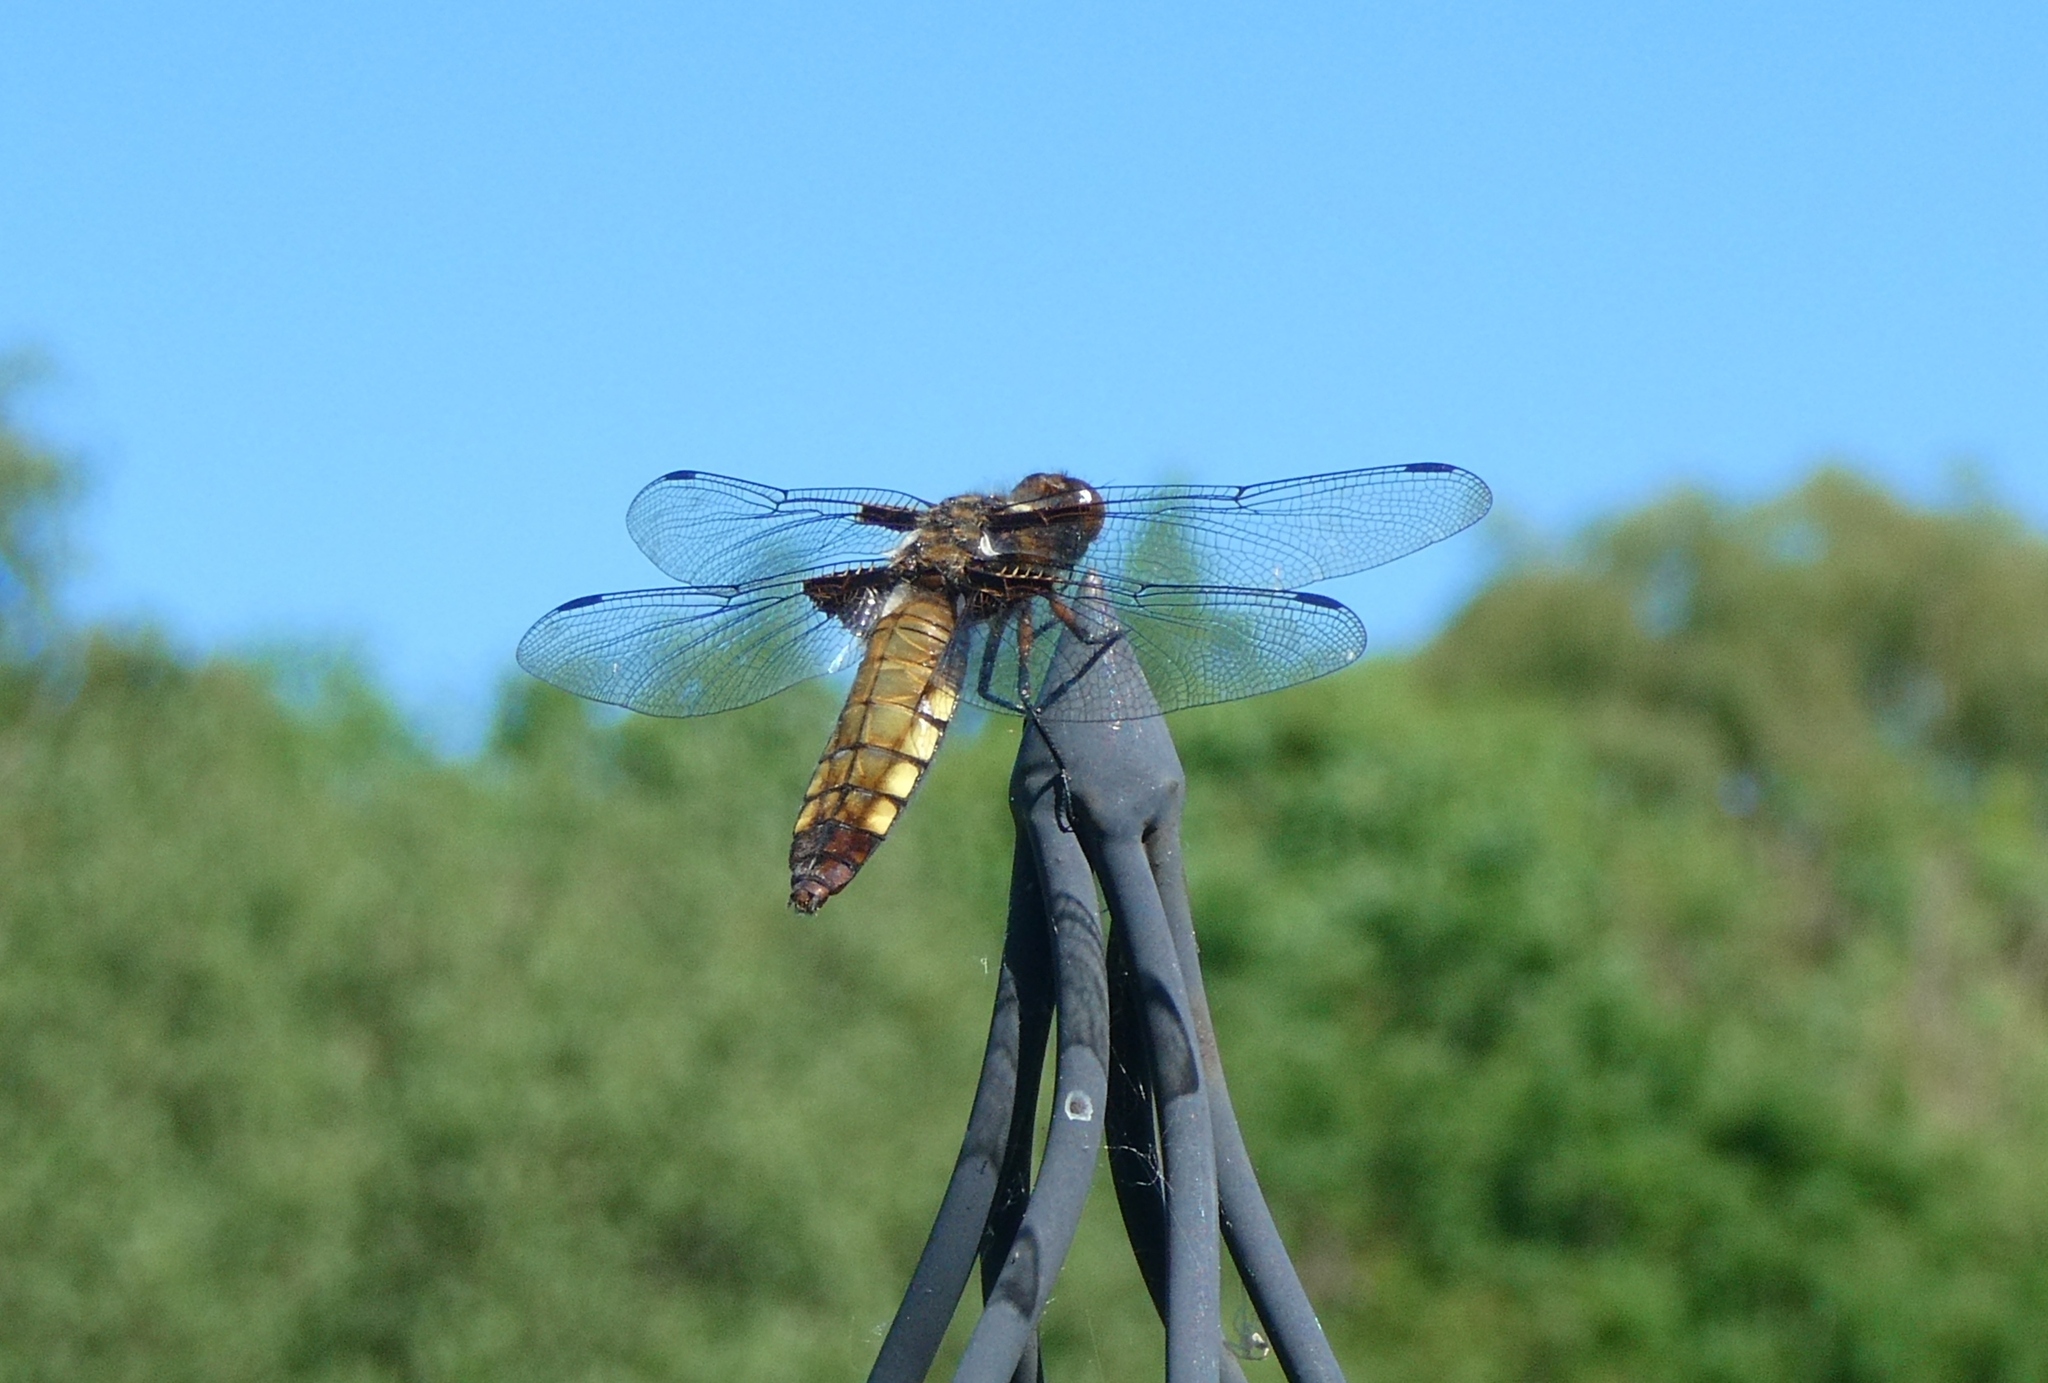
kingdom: Animalia
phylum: Arthropoda
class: Insecta
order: Odonata
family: Libellulidae
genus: Libellula
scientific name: Libellula depressa
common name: Broad-bodied chaser
